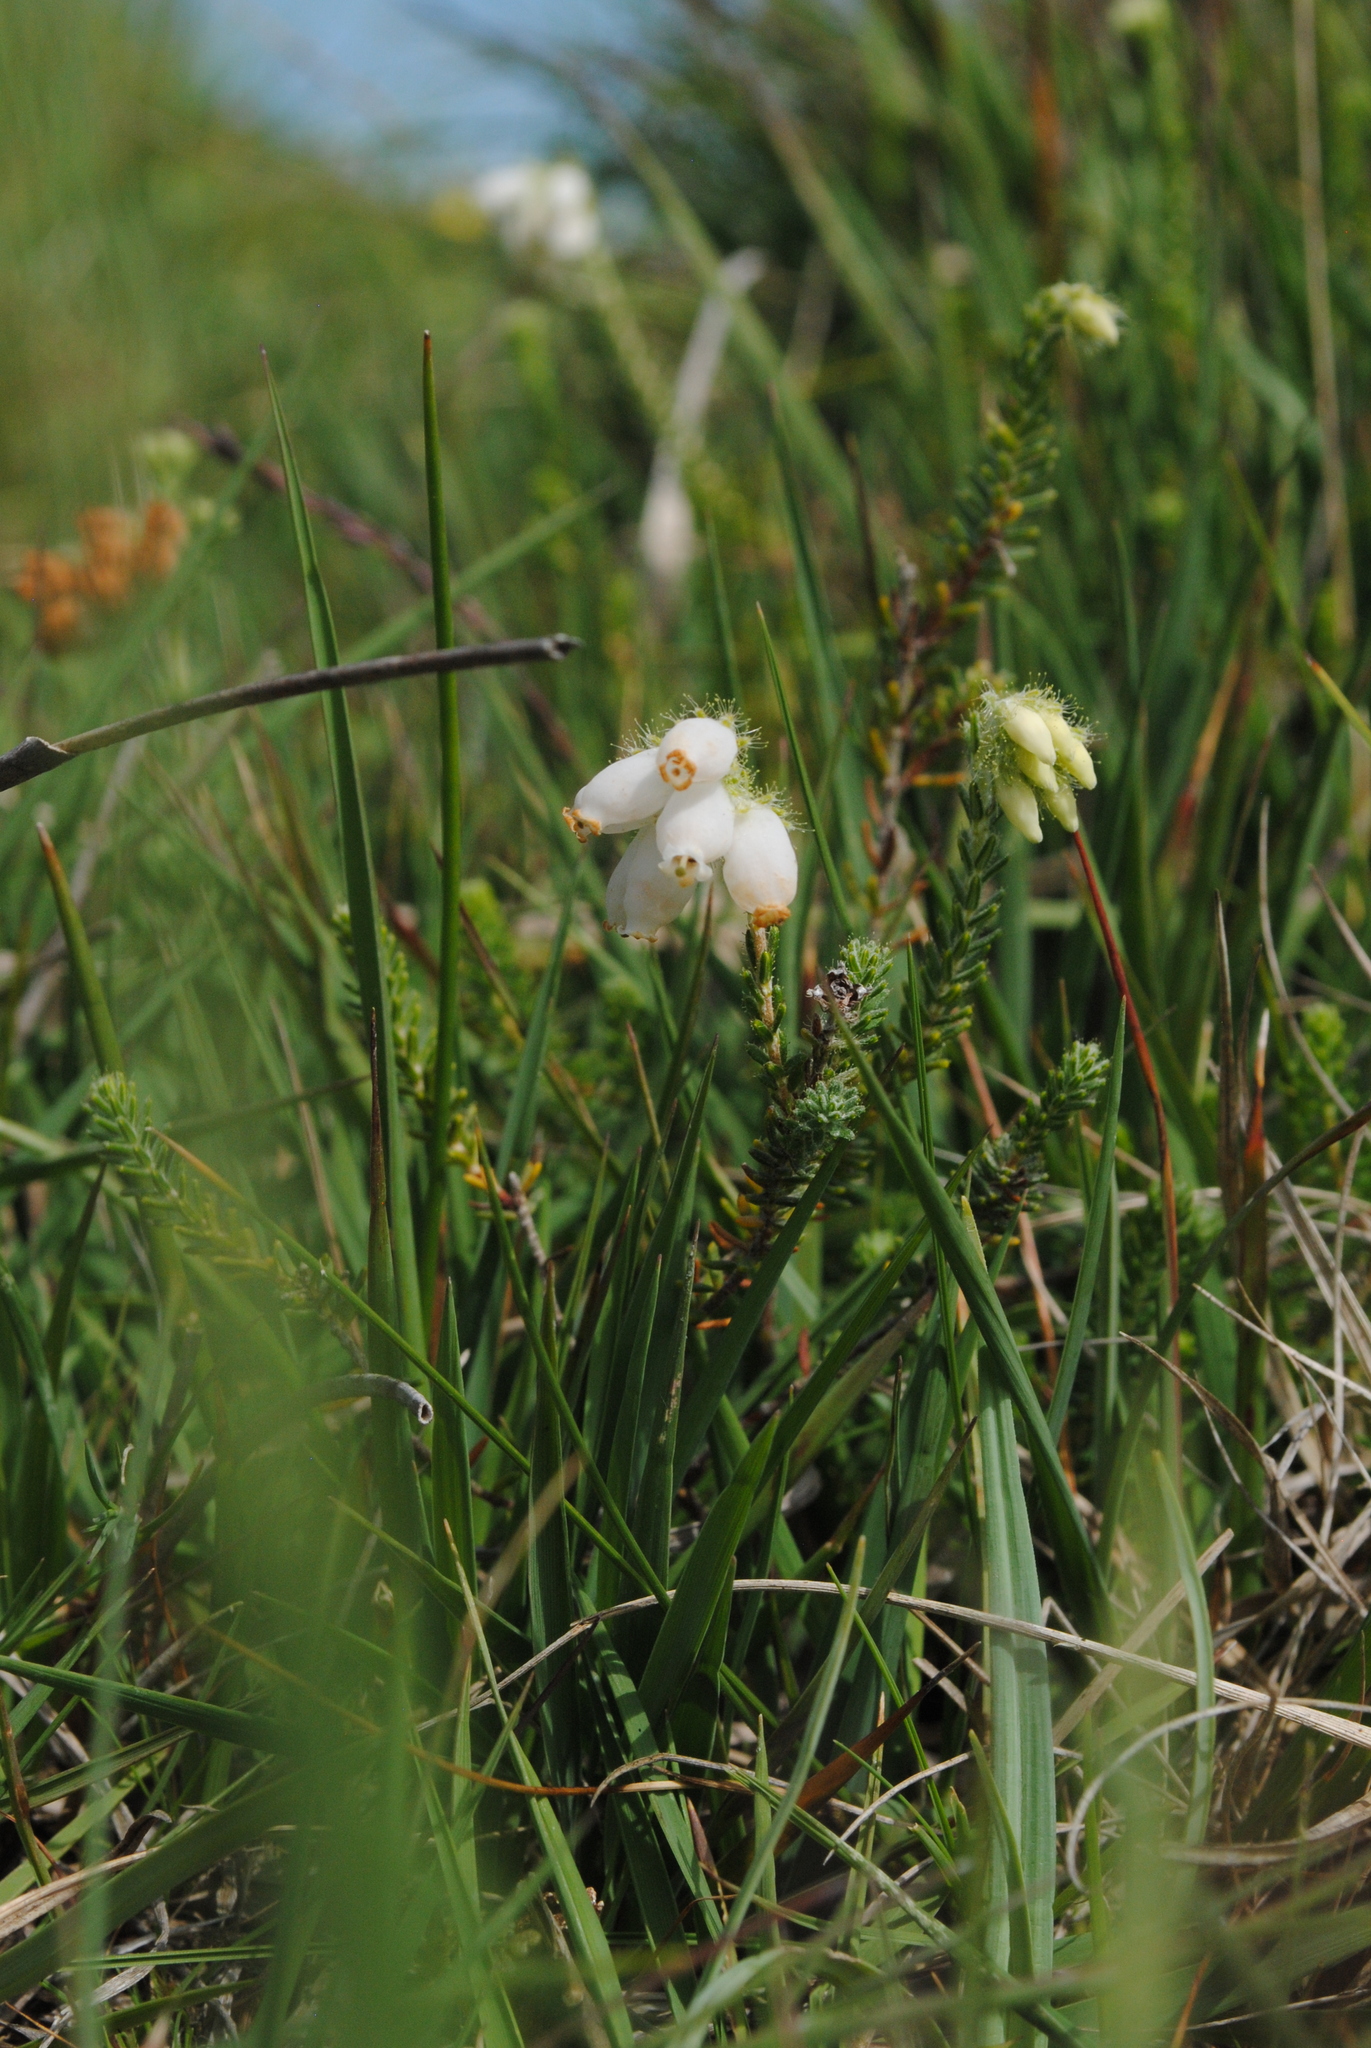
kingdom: Plantae
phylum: Tracheophyta
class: Magnoliopsida
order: Ericales
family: Ericaceae
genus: Erica
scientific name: Erica tetralix
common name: Cross-leaved heath
